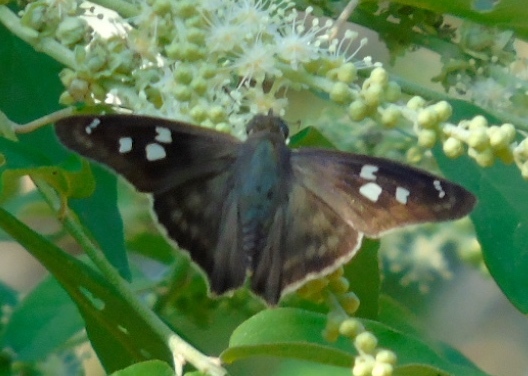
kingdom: Animalia
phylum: Arthropoda
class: Insecta
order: Lepidoptera
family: Hesperiidae
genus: Polygonus
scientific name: Polygonus leo
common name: Hammoch skipper
